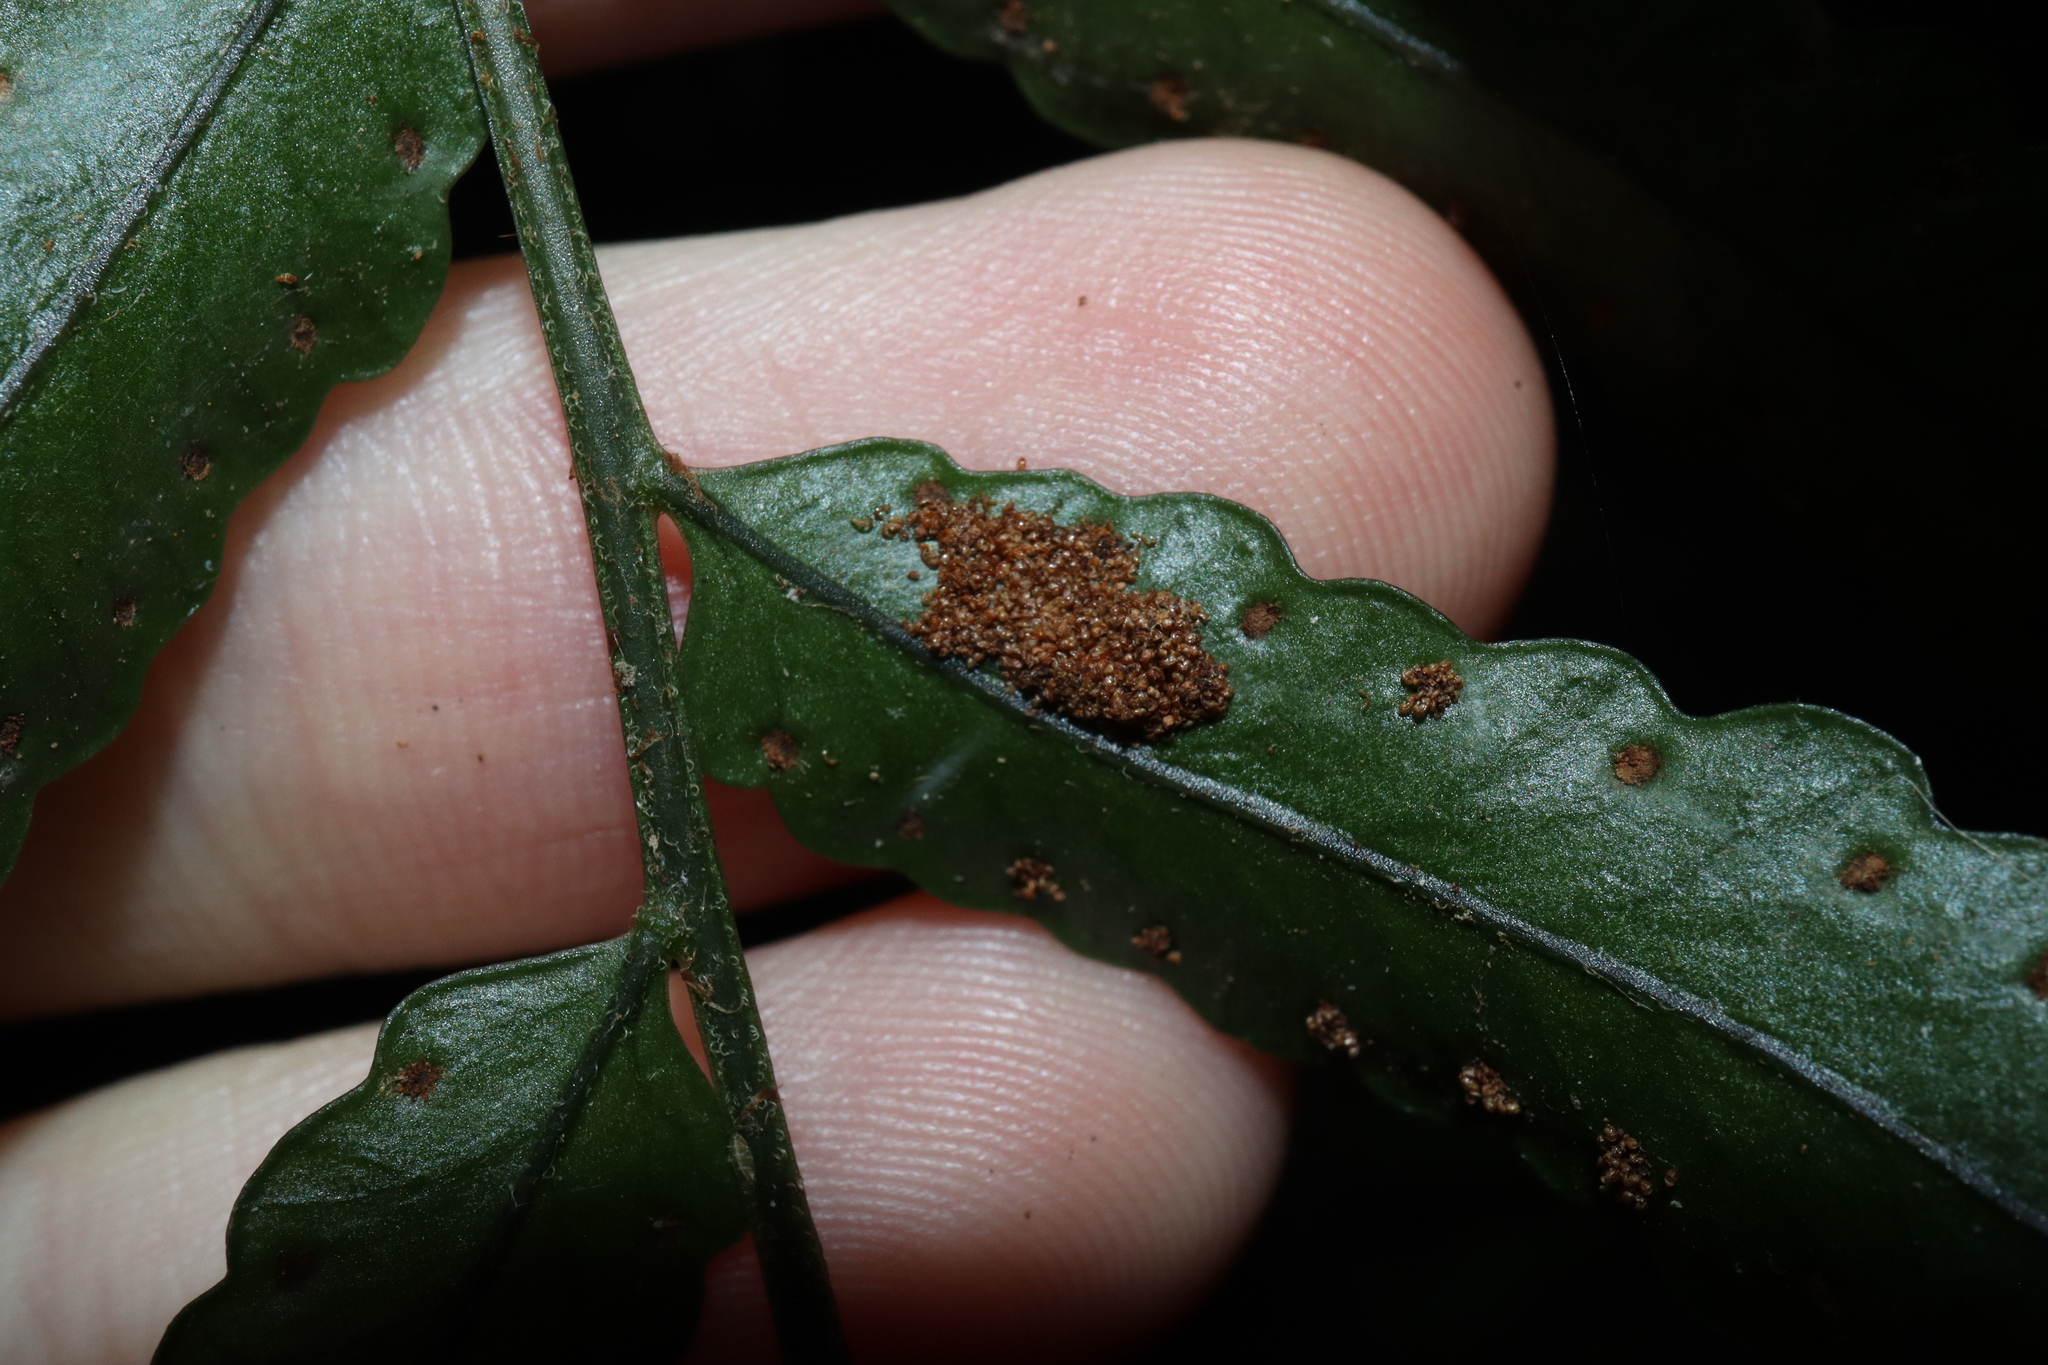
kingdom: Plantae
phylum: Tracheophyta
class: Polypodiopsida
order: Polypodiales
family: Tectariaceae
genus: Arthropteris
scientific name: Arthropteris tenella
